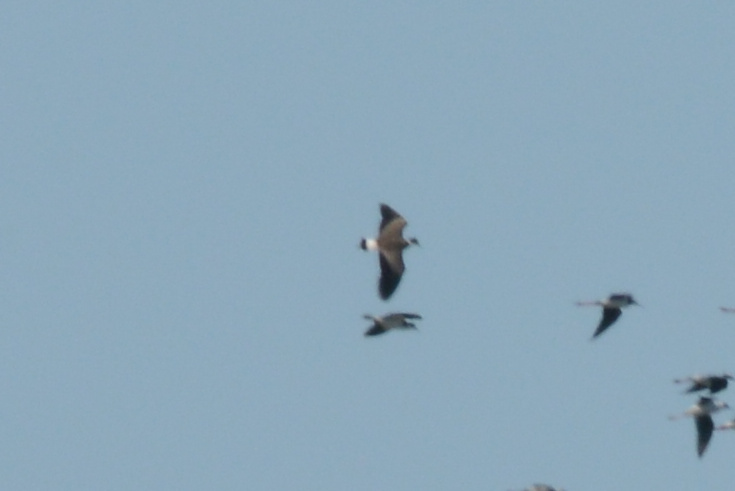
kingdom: Animalia
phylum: Chordata
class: Aves
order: Charadriiformes
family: Charadriidae
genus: Vanellus
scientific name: Vanellus miles
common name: Masked lapwing
